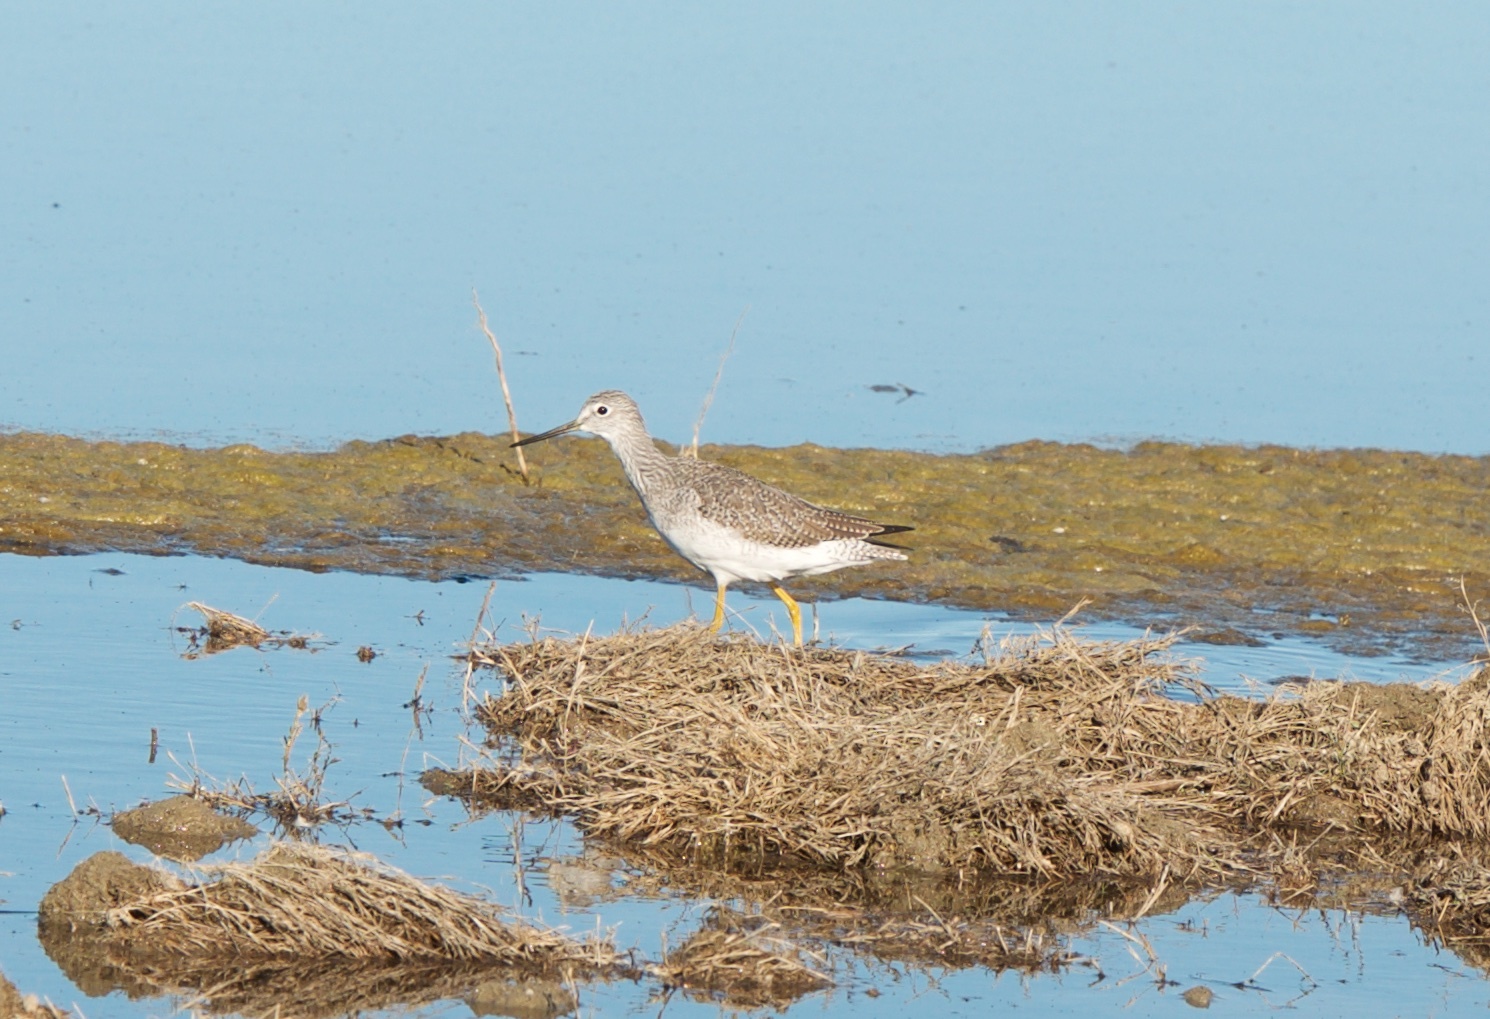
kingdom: Animalia
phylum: Chordata
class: Aves
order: Charadriiformes
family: Scolopacidae
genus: Tringa
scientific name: Tringa melanoleuca
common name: Greater yellowlegs
